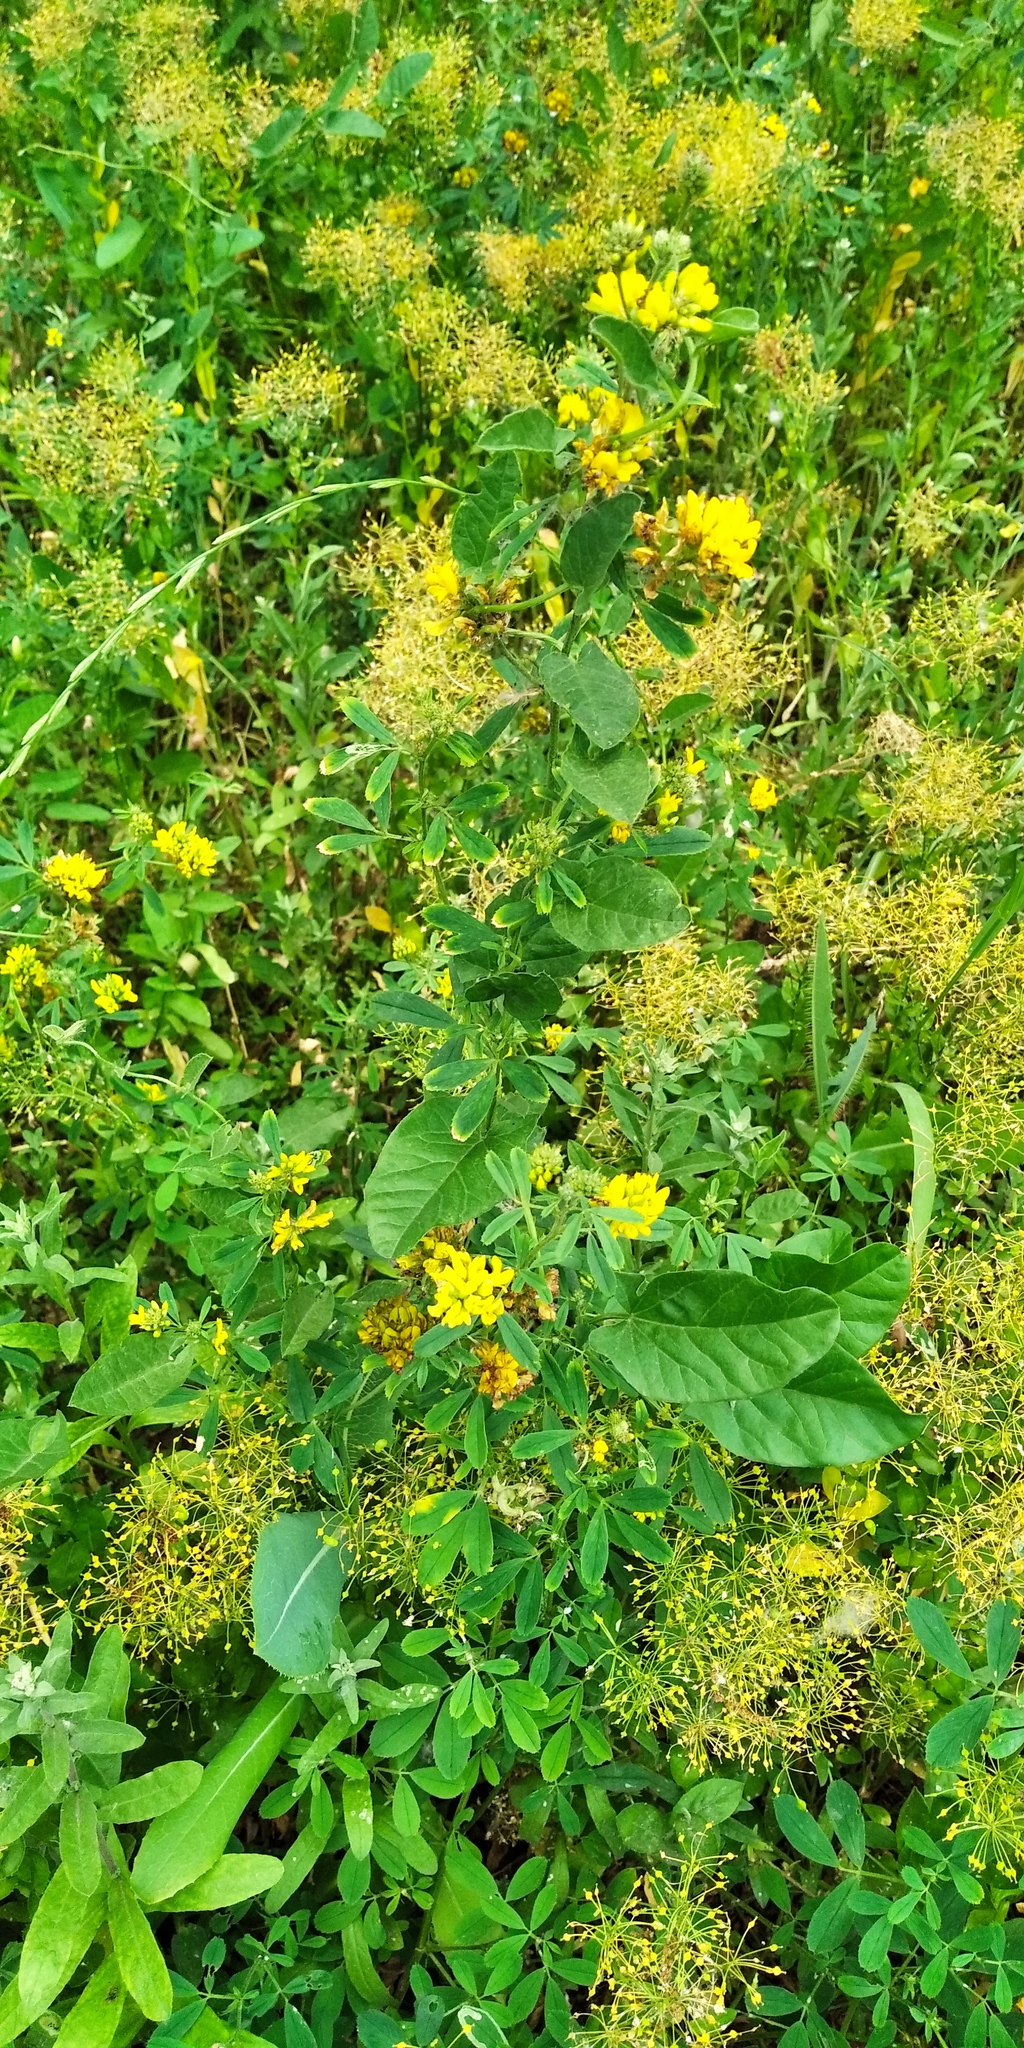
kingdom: Plantae
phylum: Tracheophyta
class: Magnoliopsida
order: Fabales
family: Fabaceae
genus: Medicago
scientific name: Medicago falcata
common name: Sickle medick
